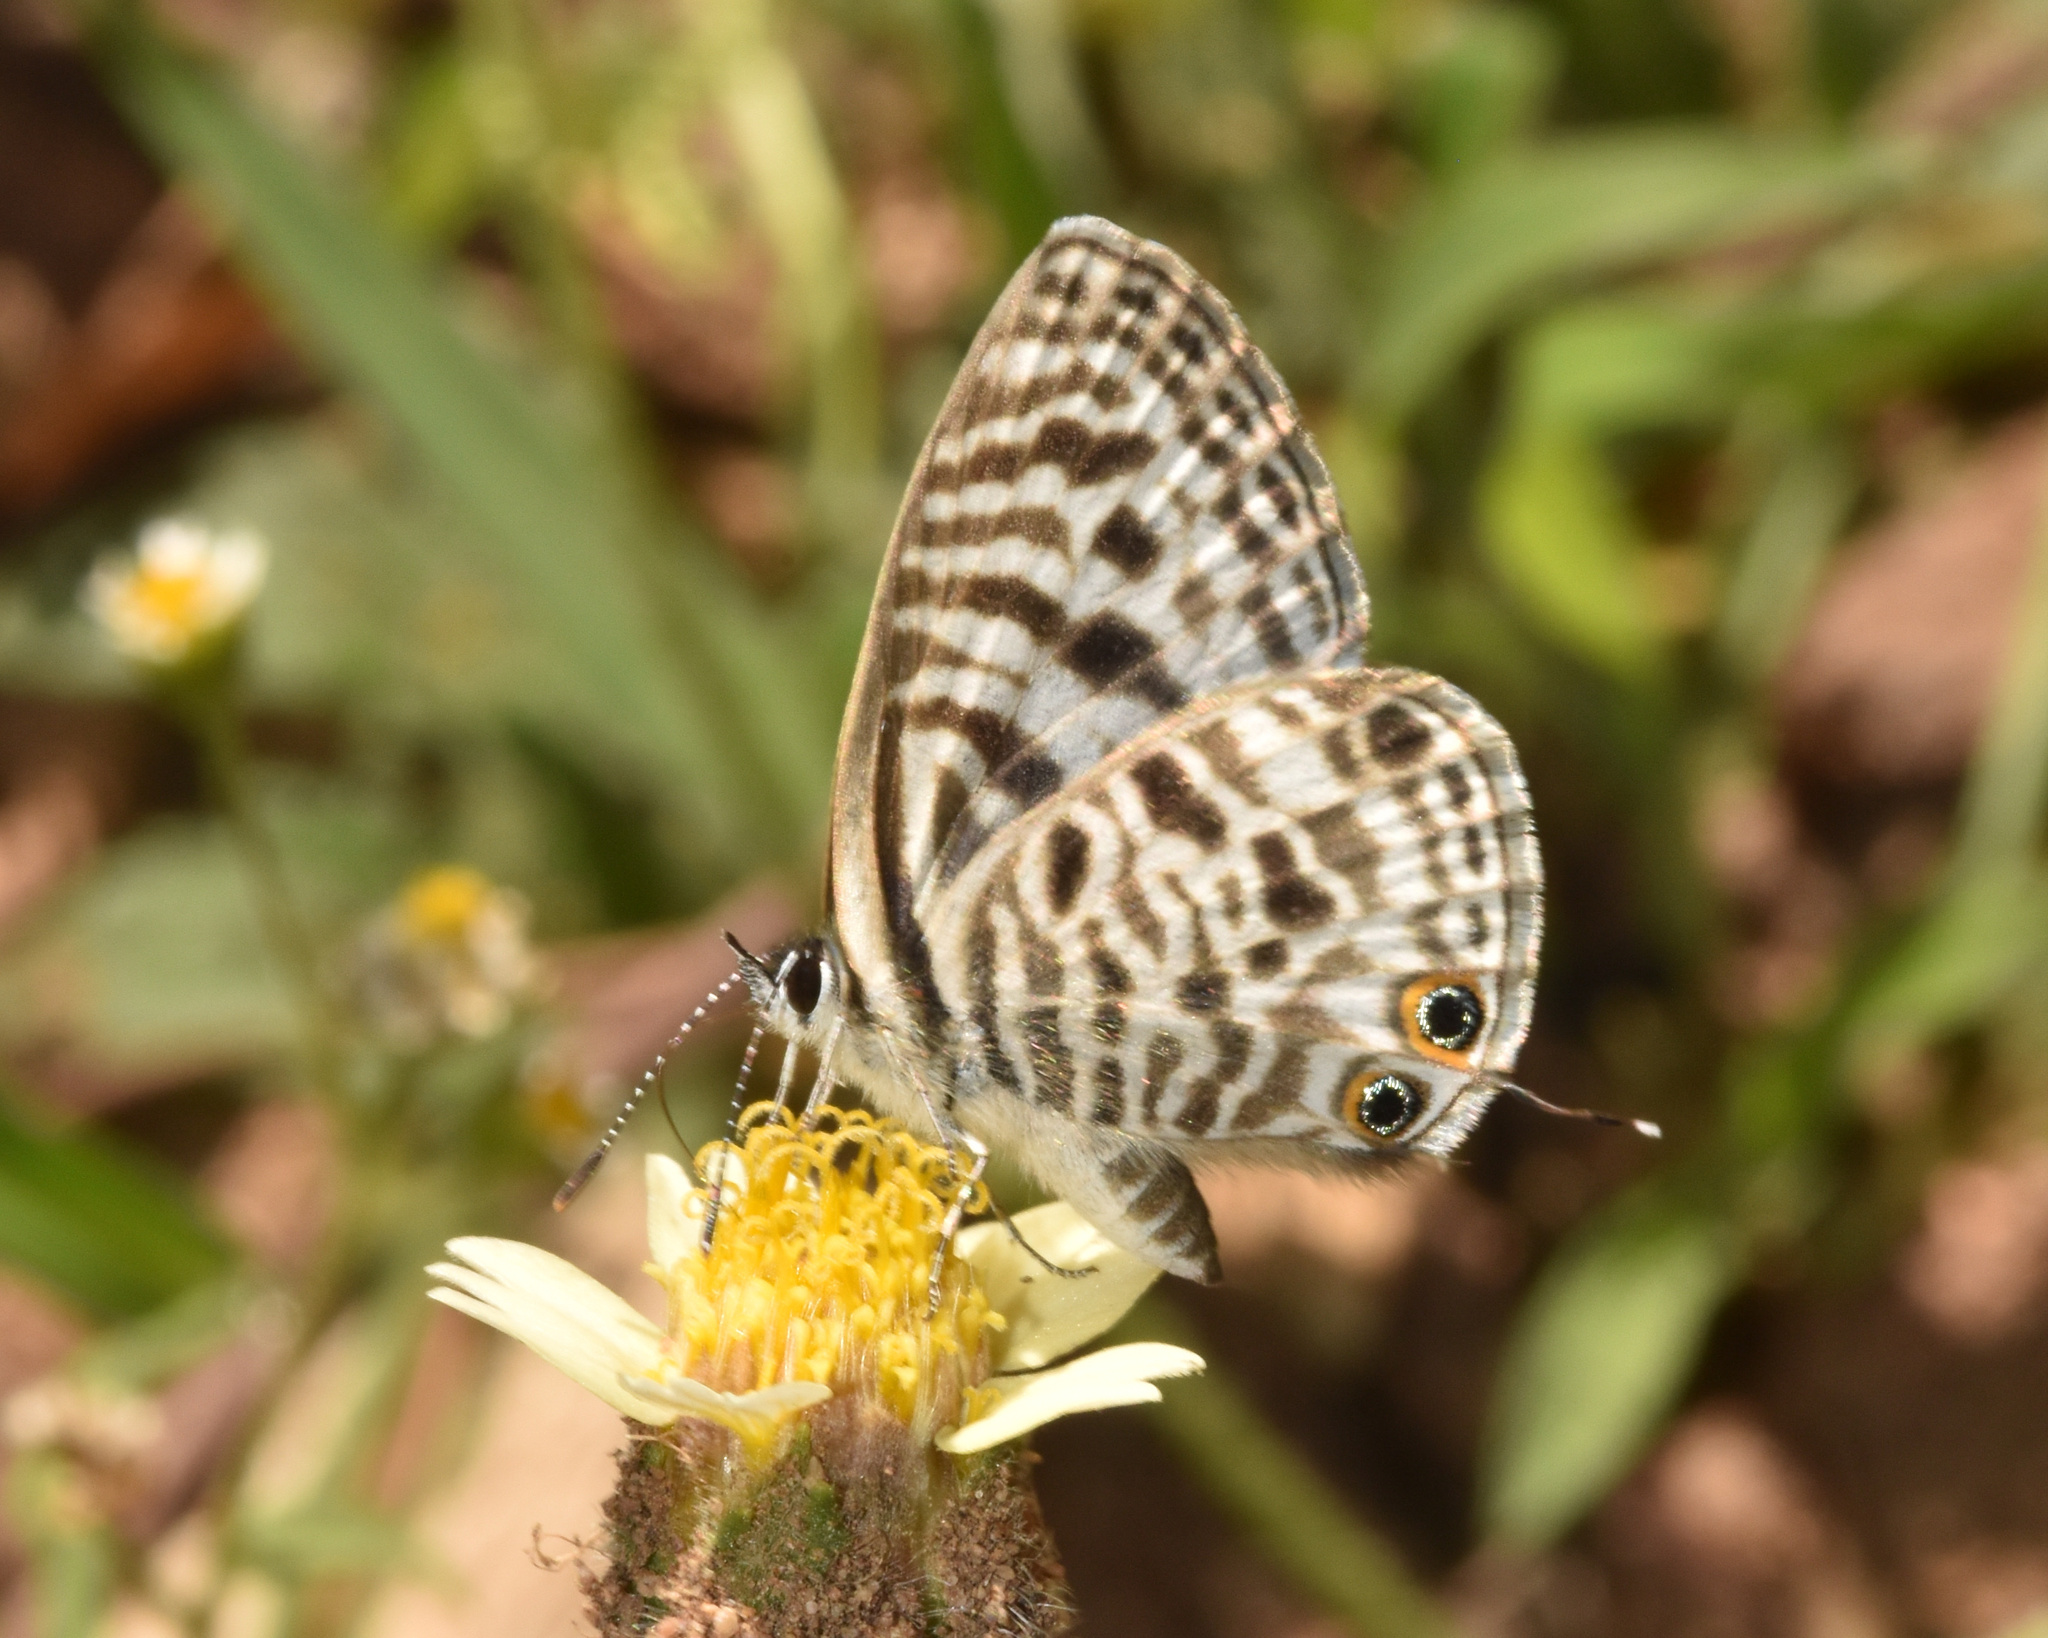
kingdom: Animalia
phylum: Arthropoda
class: Insecta
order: Lepidoptera
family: Lycaenidae
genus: Leptotes
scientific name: Leptotes
